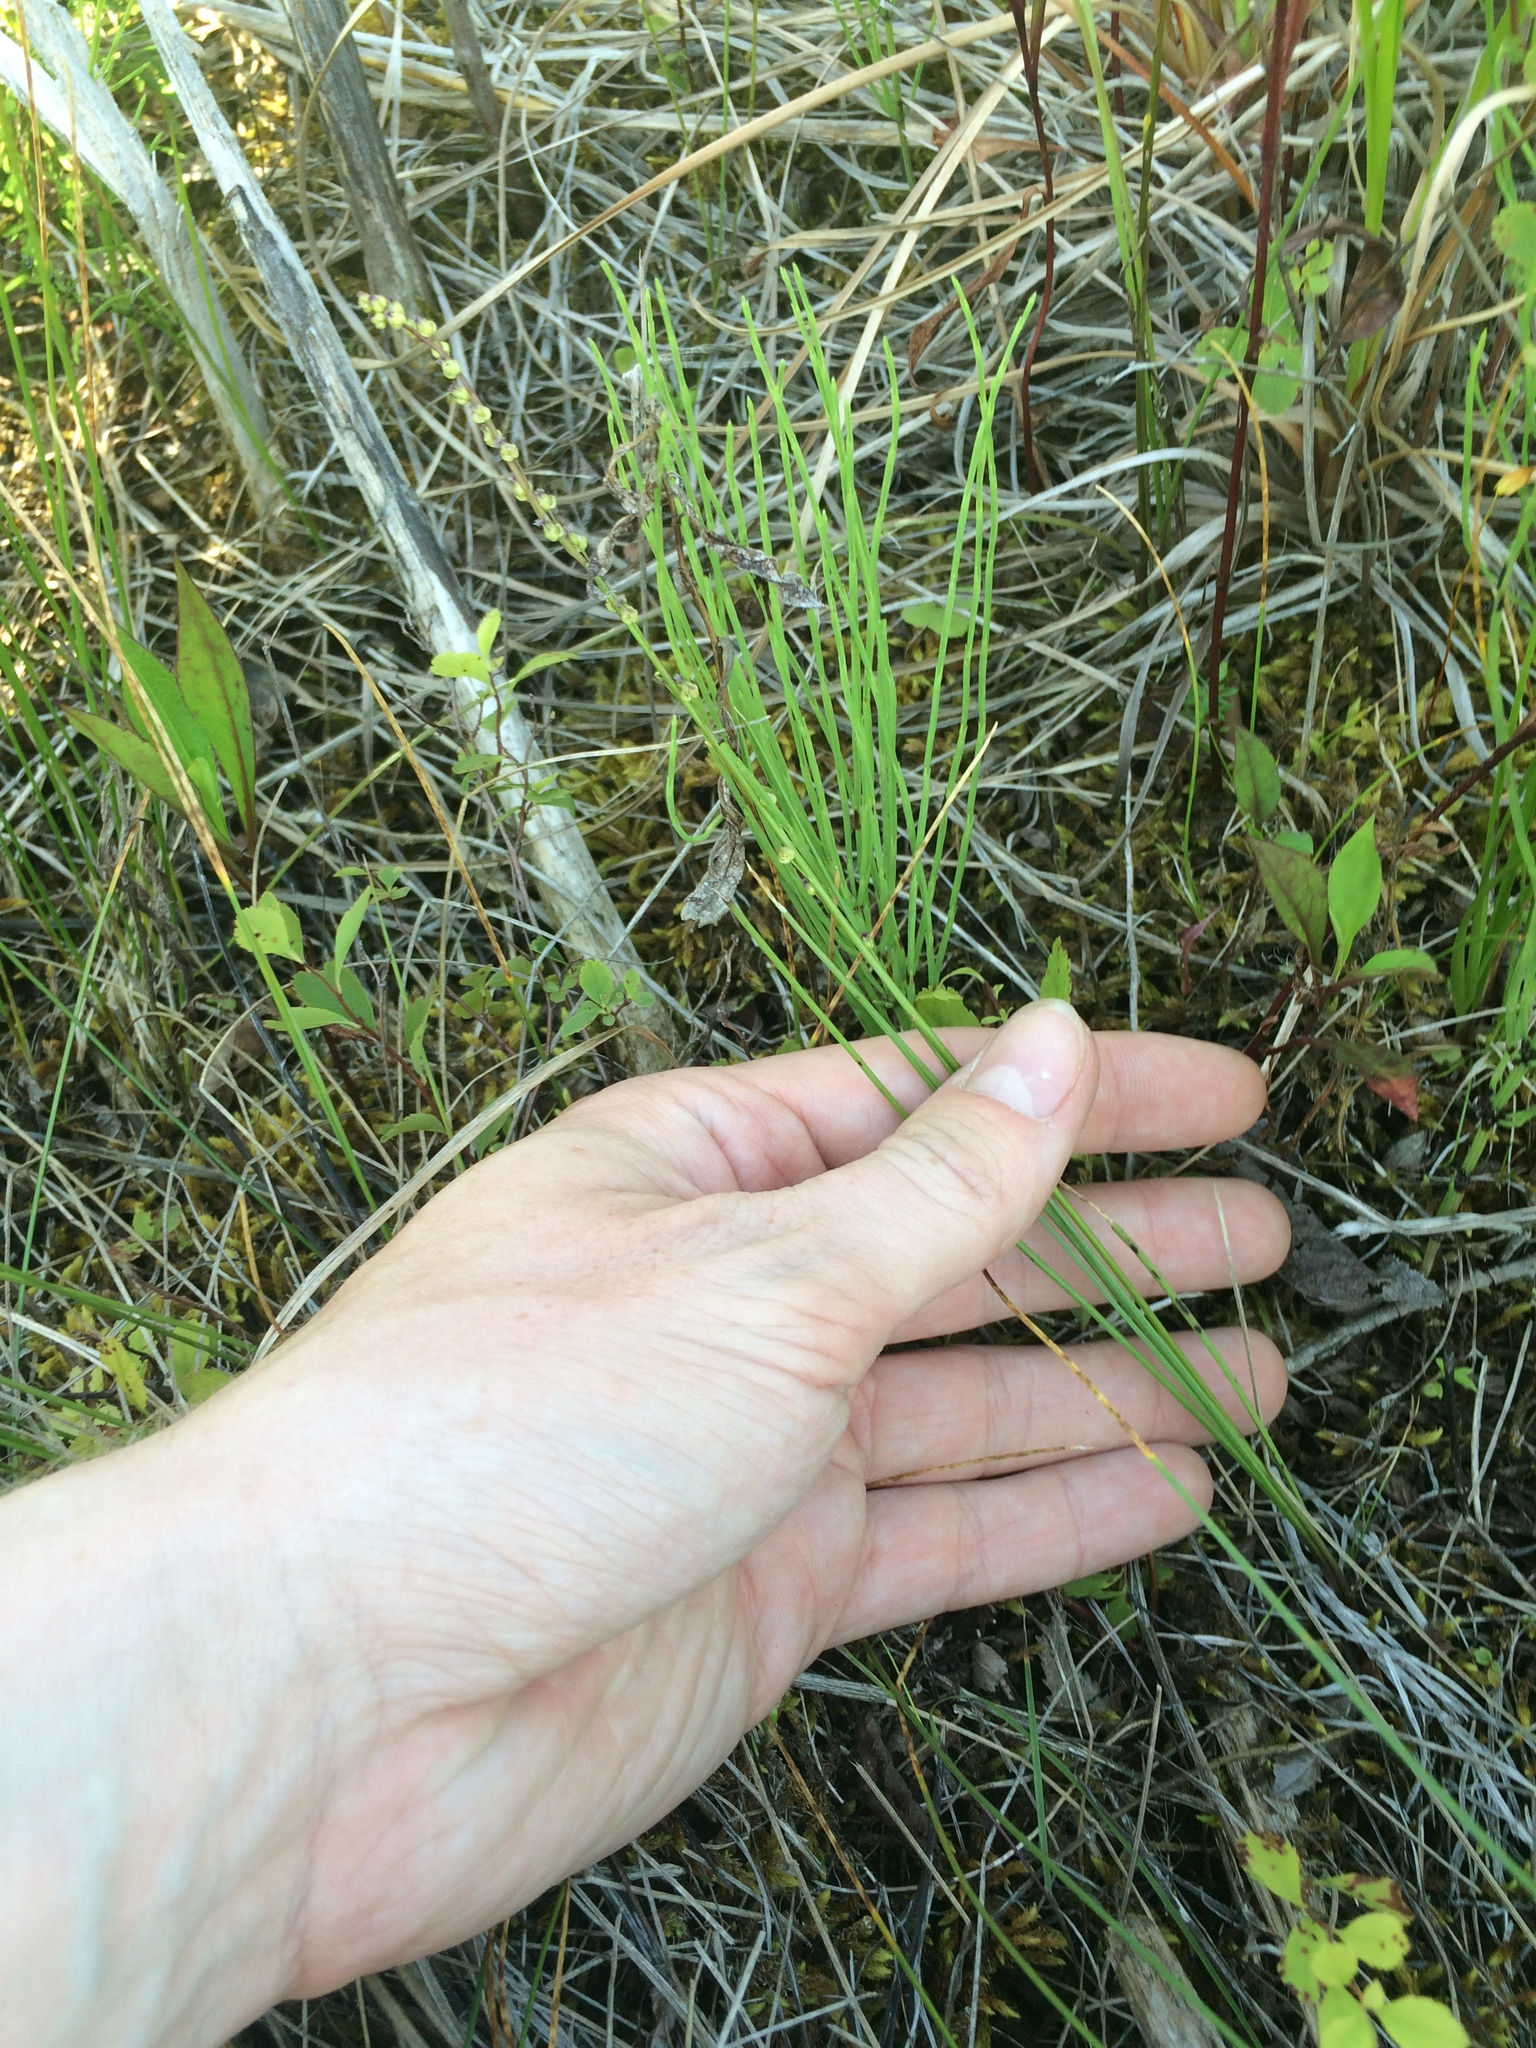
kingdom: Plantae
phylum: Tracheophyta
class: Liliopsida
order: Alismatales
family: Juncaginaceae
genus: Triglochin
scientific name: Triglochin palustris
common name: Marsh arrowgrass
